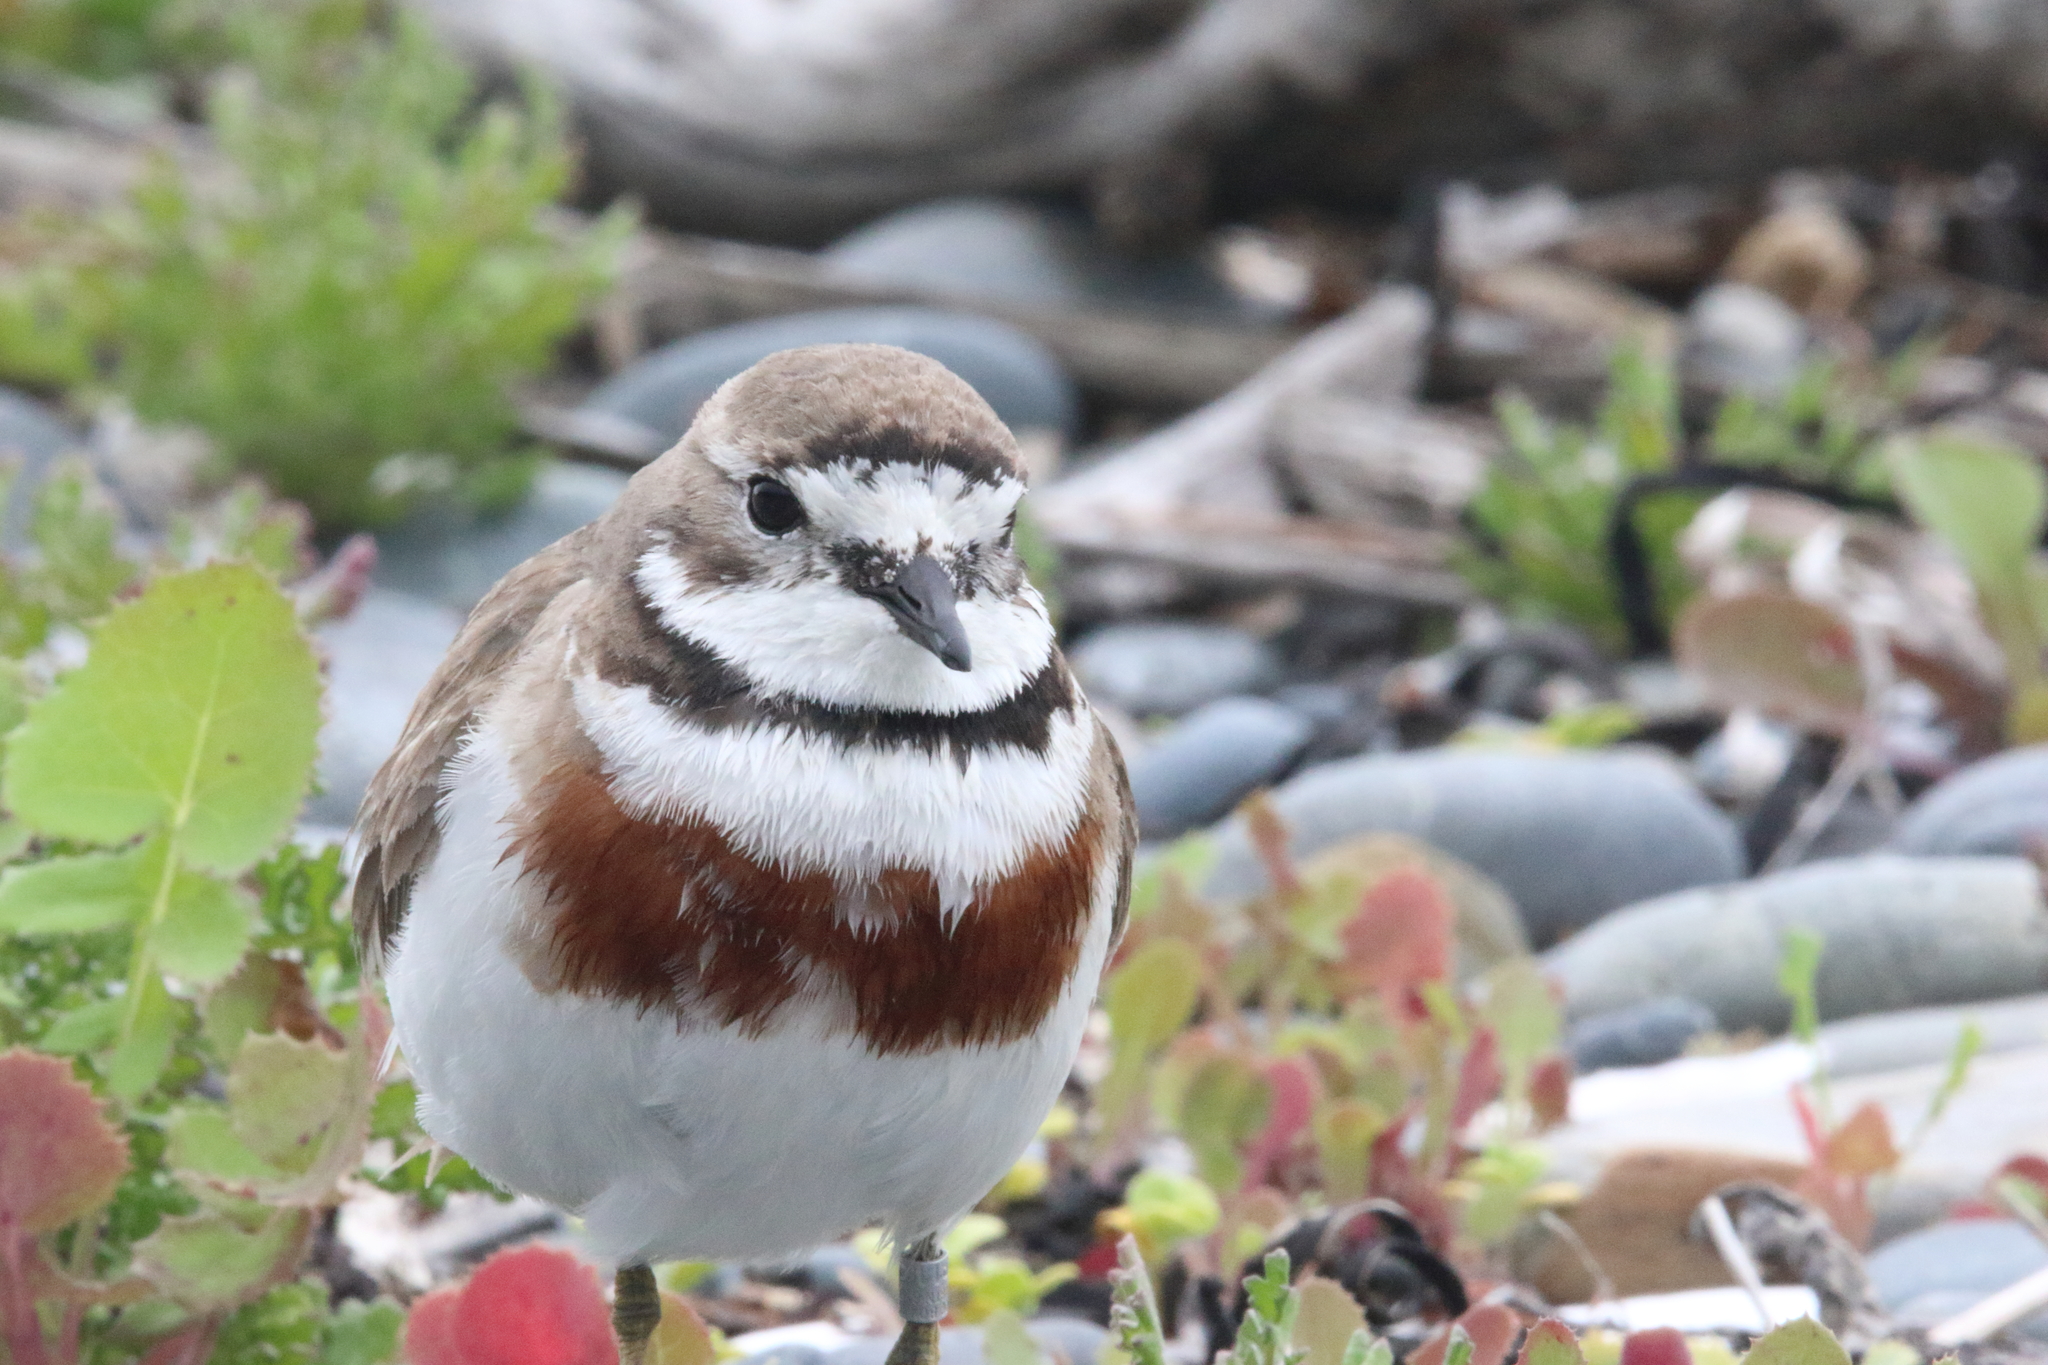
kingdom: Animalia
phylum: Chordata
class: Aves
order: Charadriiformes
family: Charadriidae
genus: Anarhynchus
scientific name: Anarhynchus
